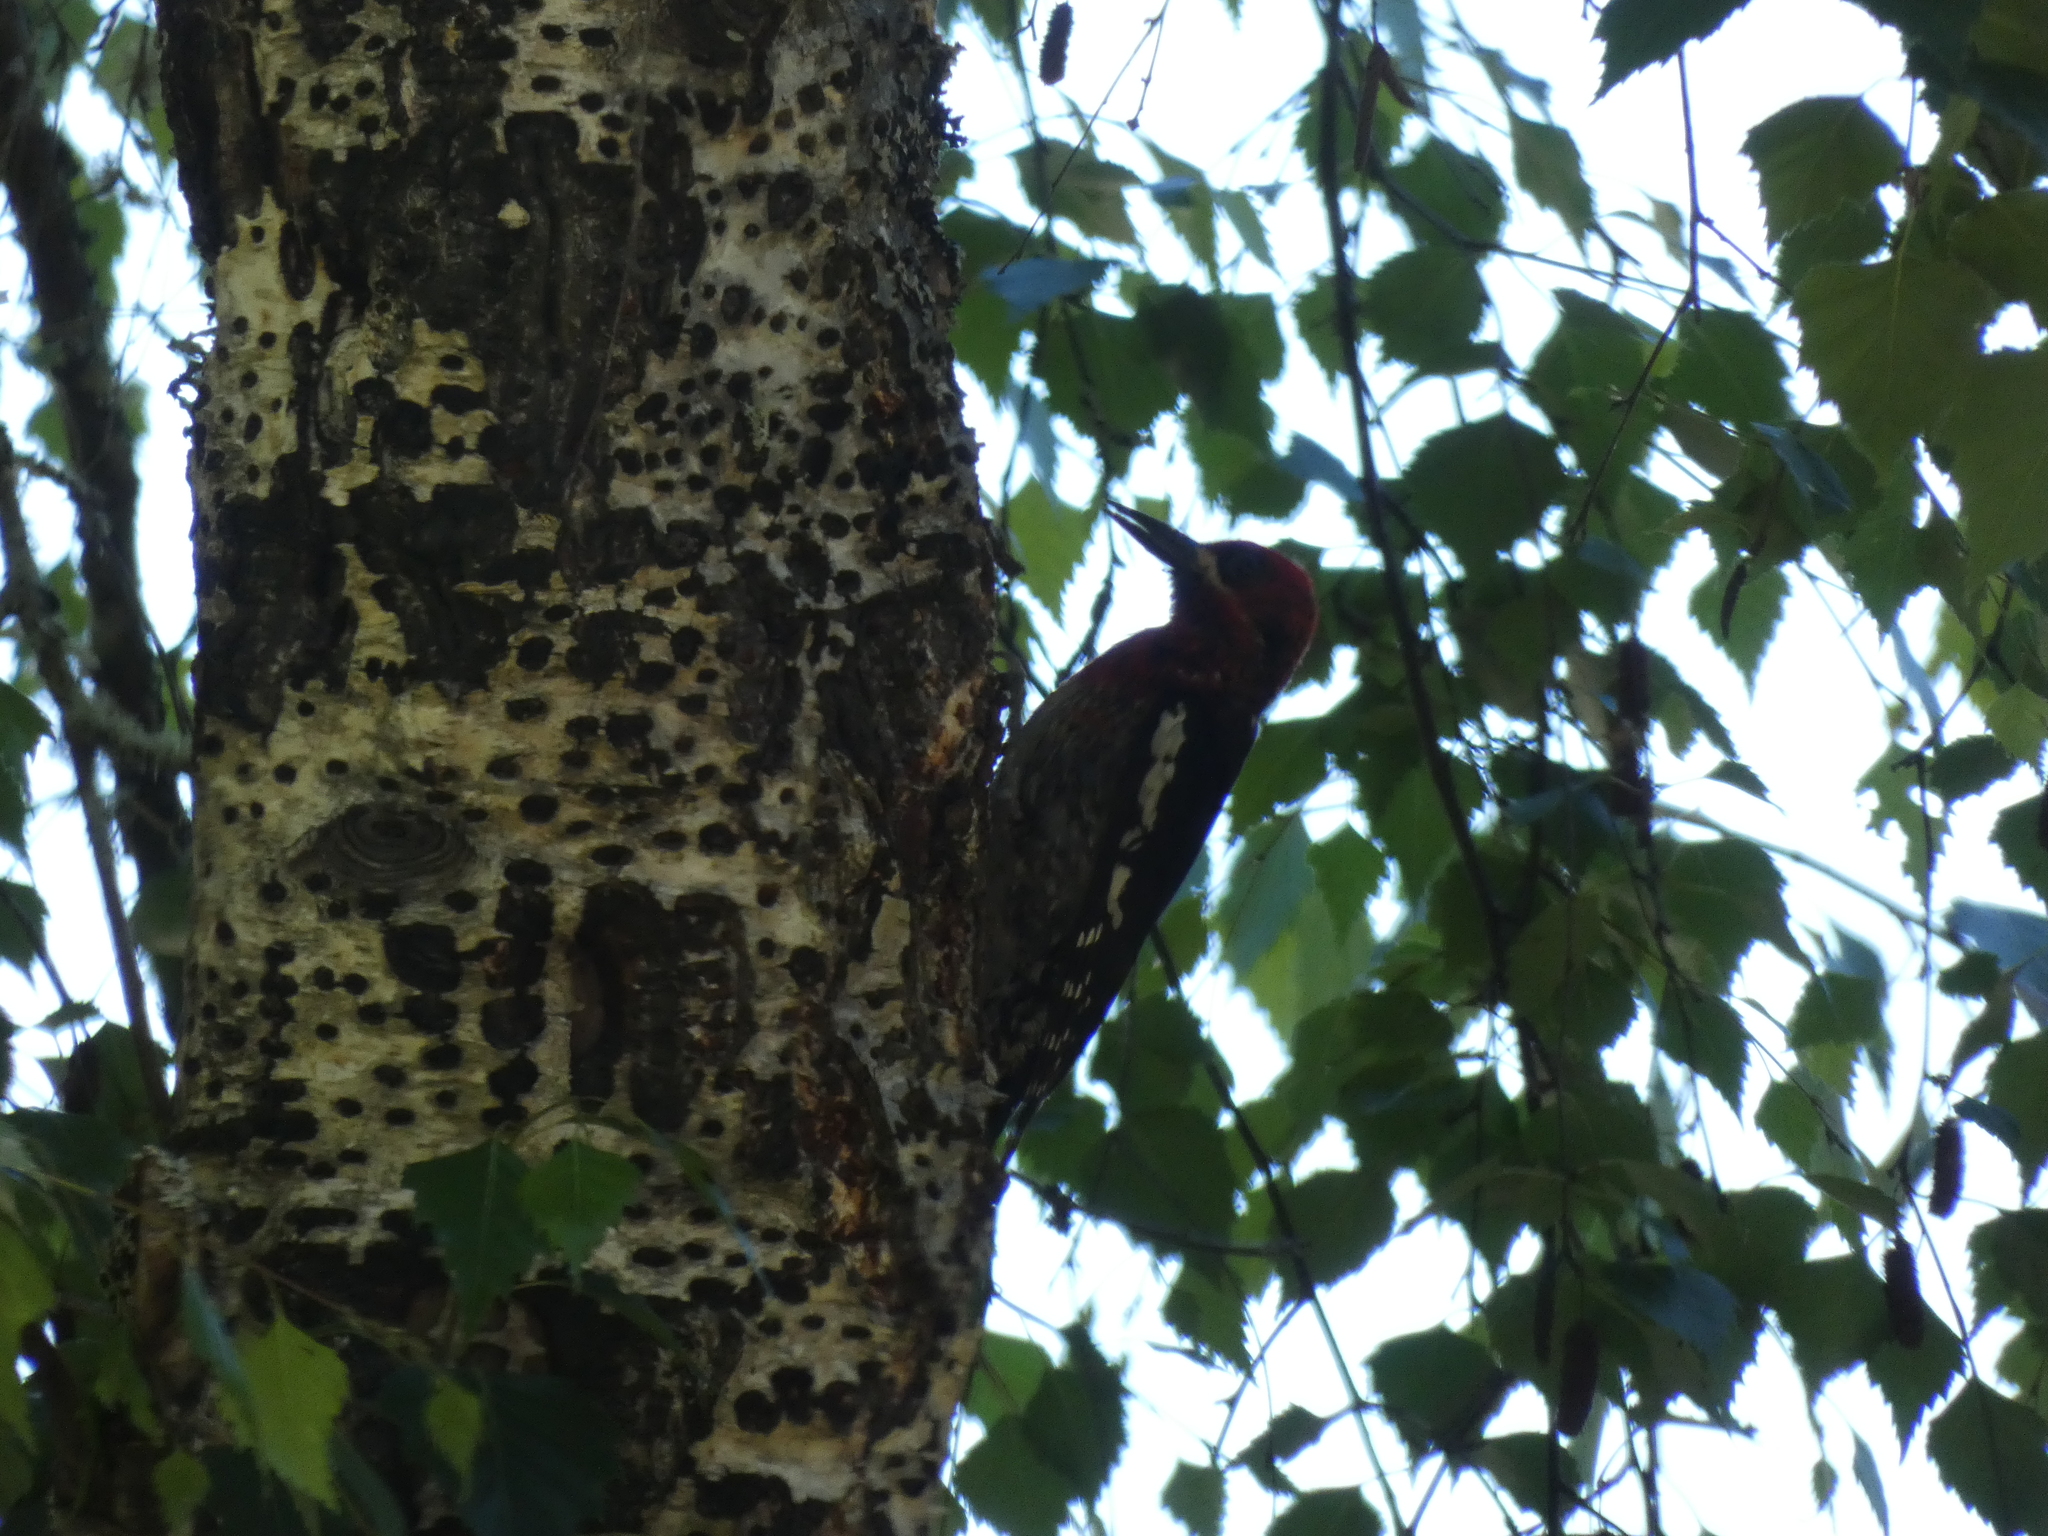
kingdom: Animalia
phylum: Chordata
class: Aves
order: Piciformes
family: Picidae
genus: Sphyrapicus
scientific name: Sphyrapicus ruber
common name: Red-breasted sapsucker
